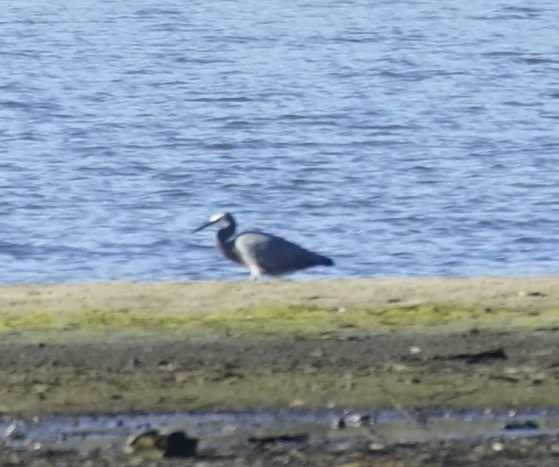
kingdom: Animalia
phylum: Chordata
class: Aves
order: Pelecaniformes
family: Ardeidae
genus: Egretta
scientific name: Egretta novaehollandiae
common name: White-faced heron
